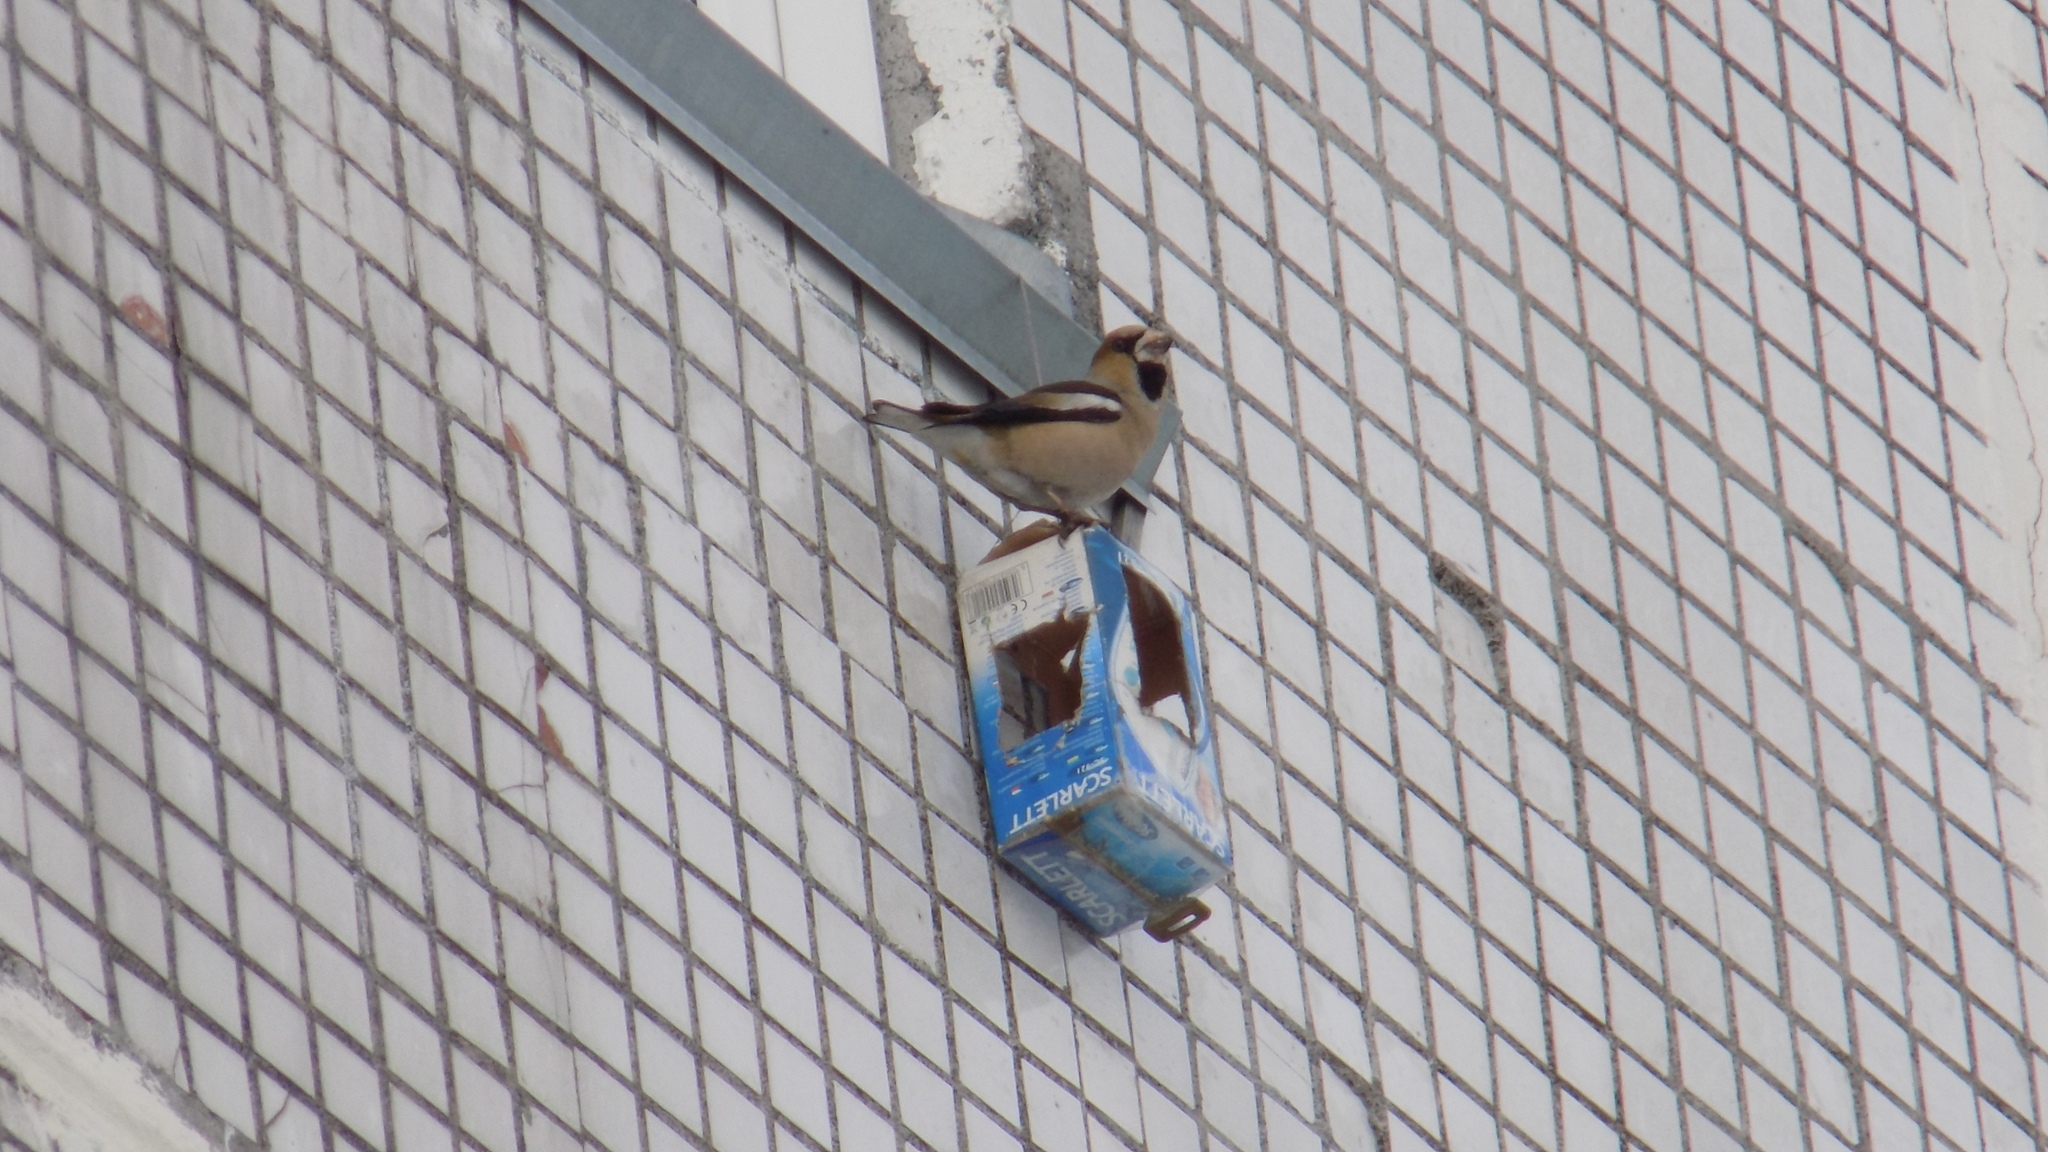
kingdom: Animalia
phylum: Chordata
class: Aves
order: Passeriformes
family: Fringillidae
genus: Coccothraustes
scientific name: Coccothraustes coccothraustes
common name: Hawfinch
